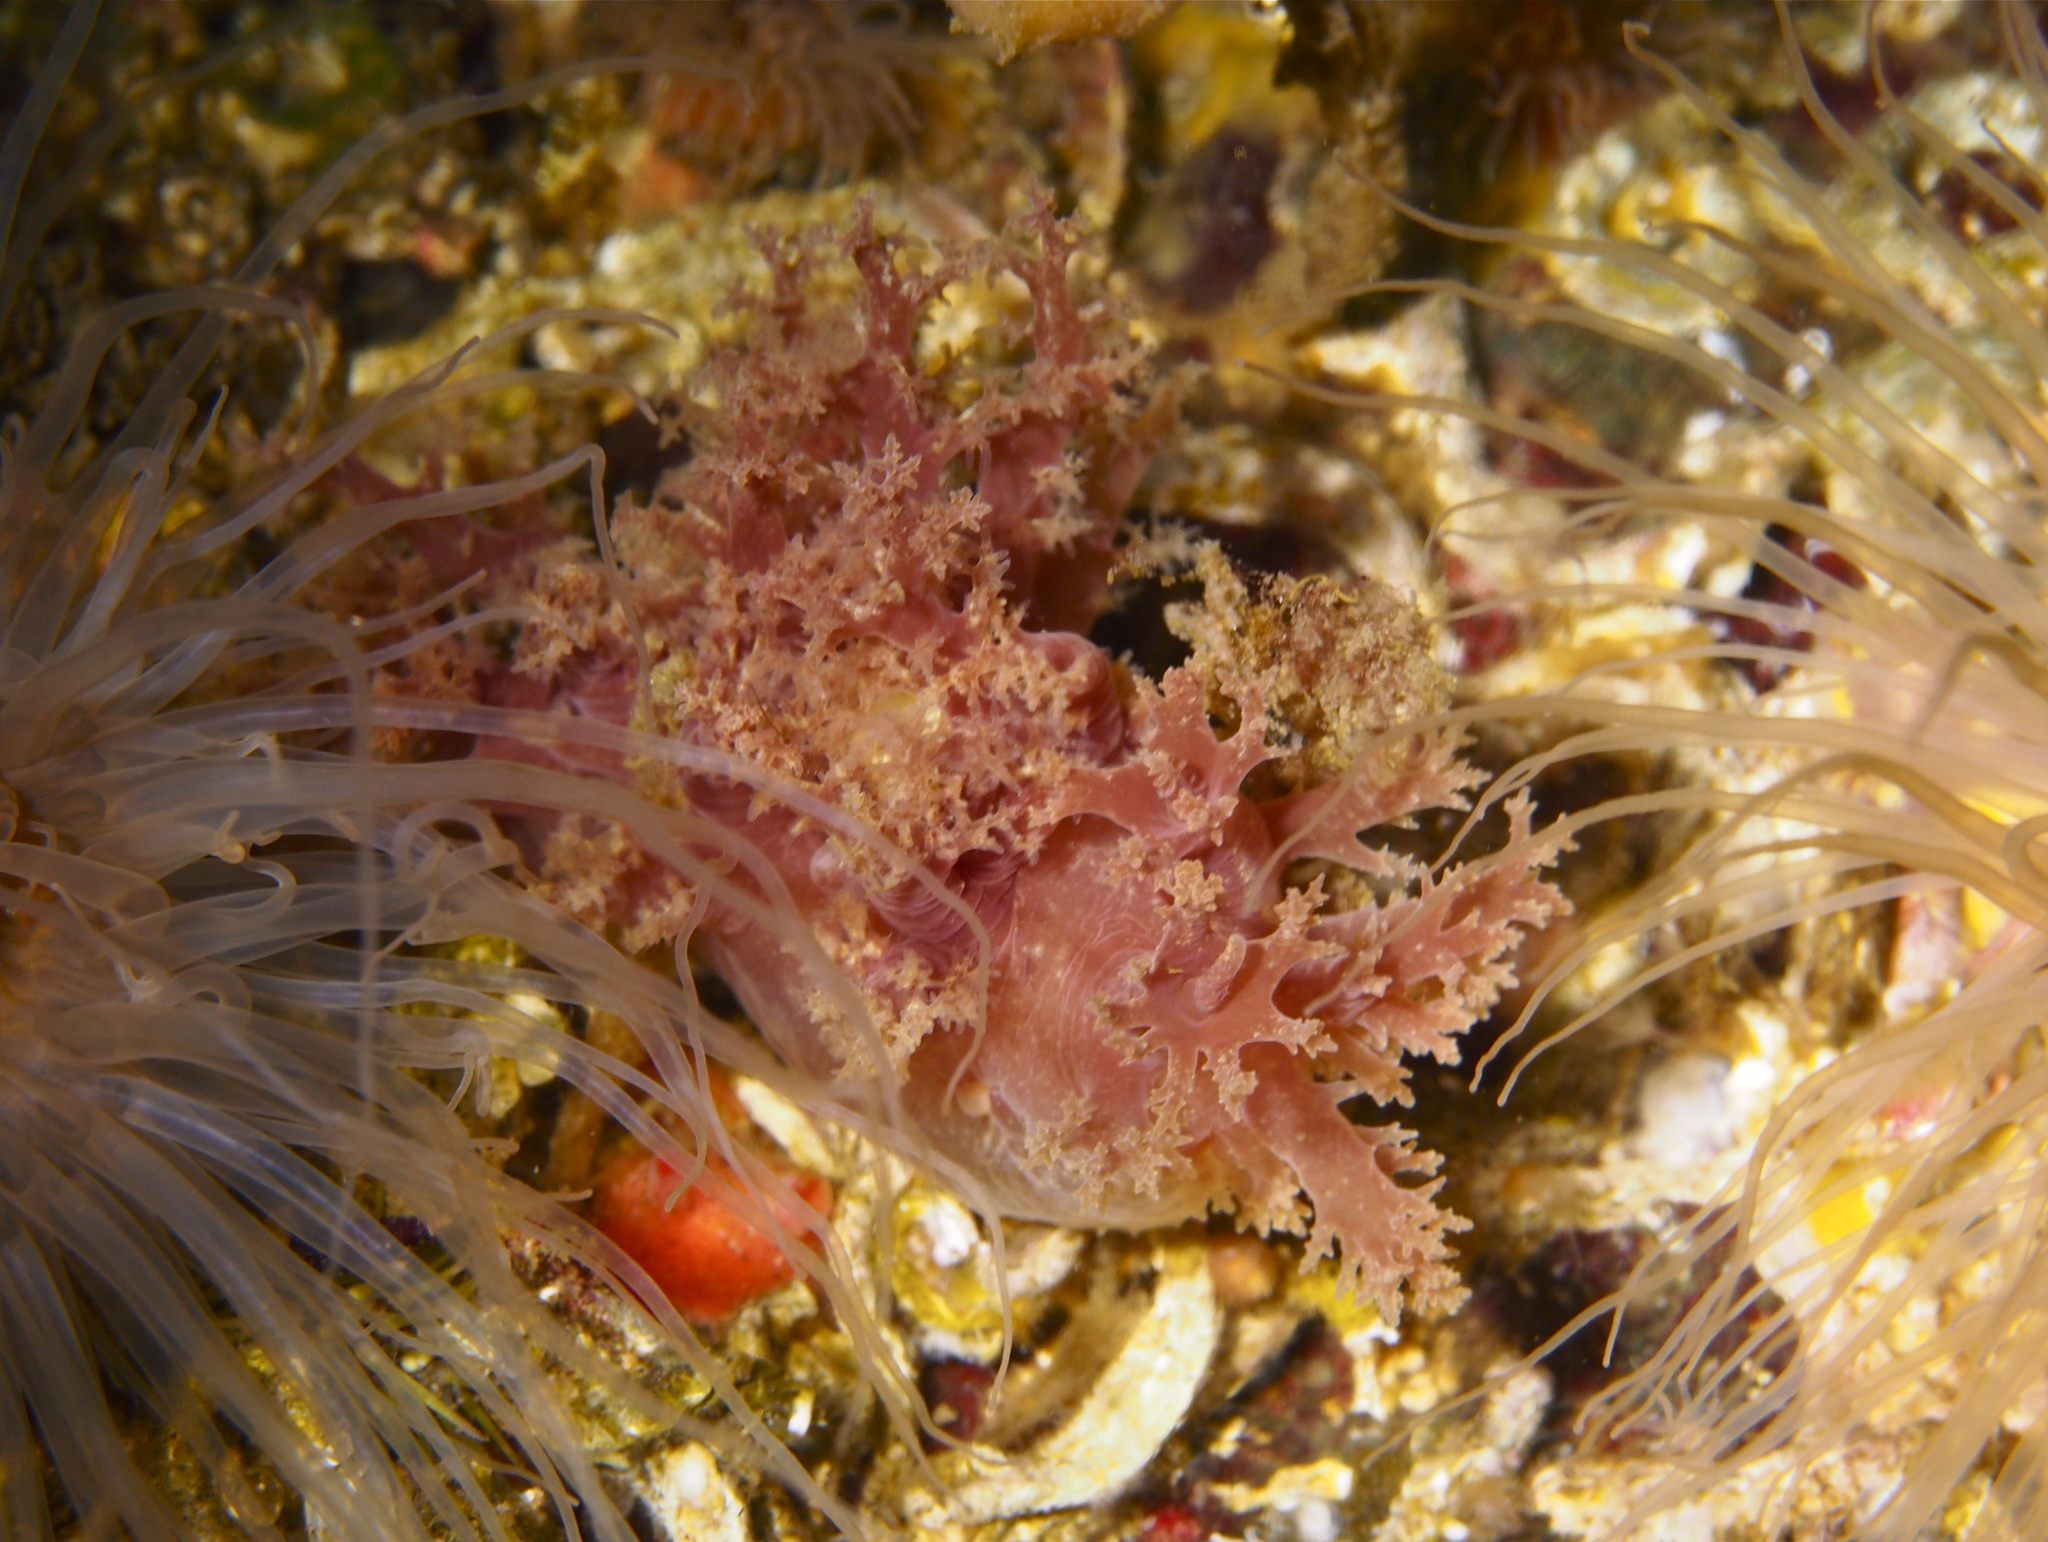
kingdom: Animalia
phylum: Mollusca
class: Gastropoda
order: Nudibranchia
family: Dendronotidae
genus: Dendronotus
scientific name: Dendronotus lacteus
